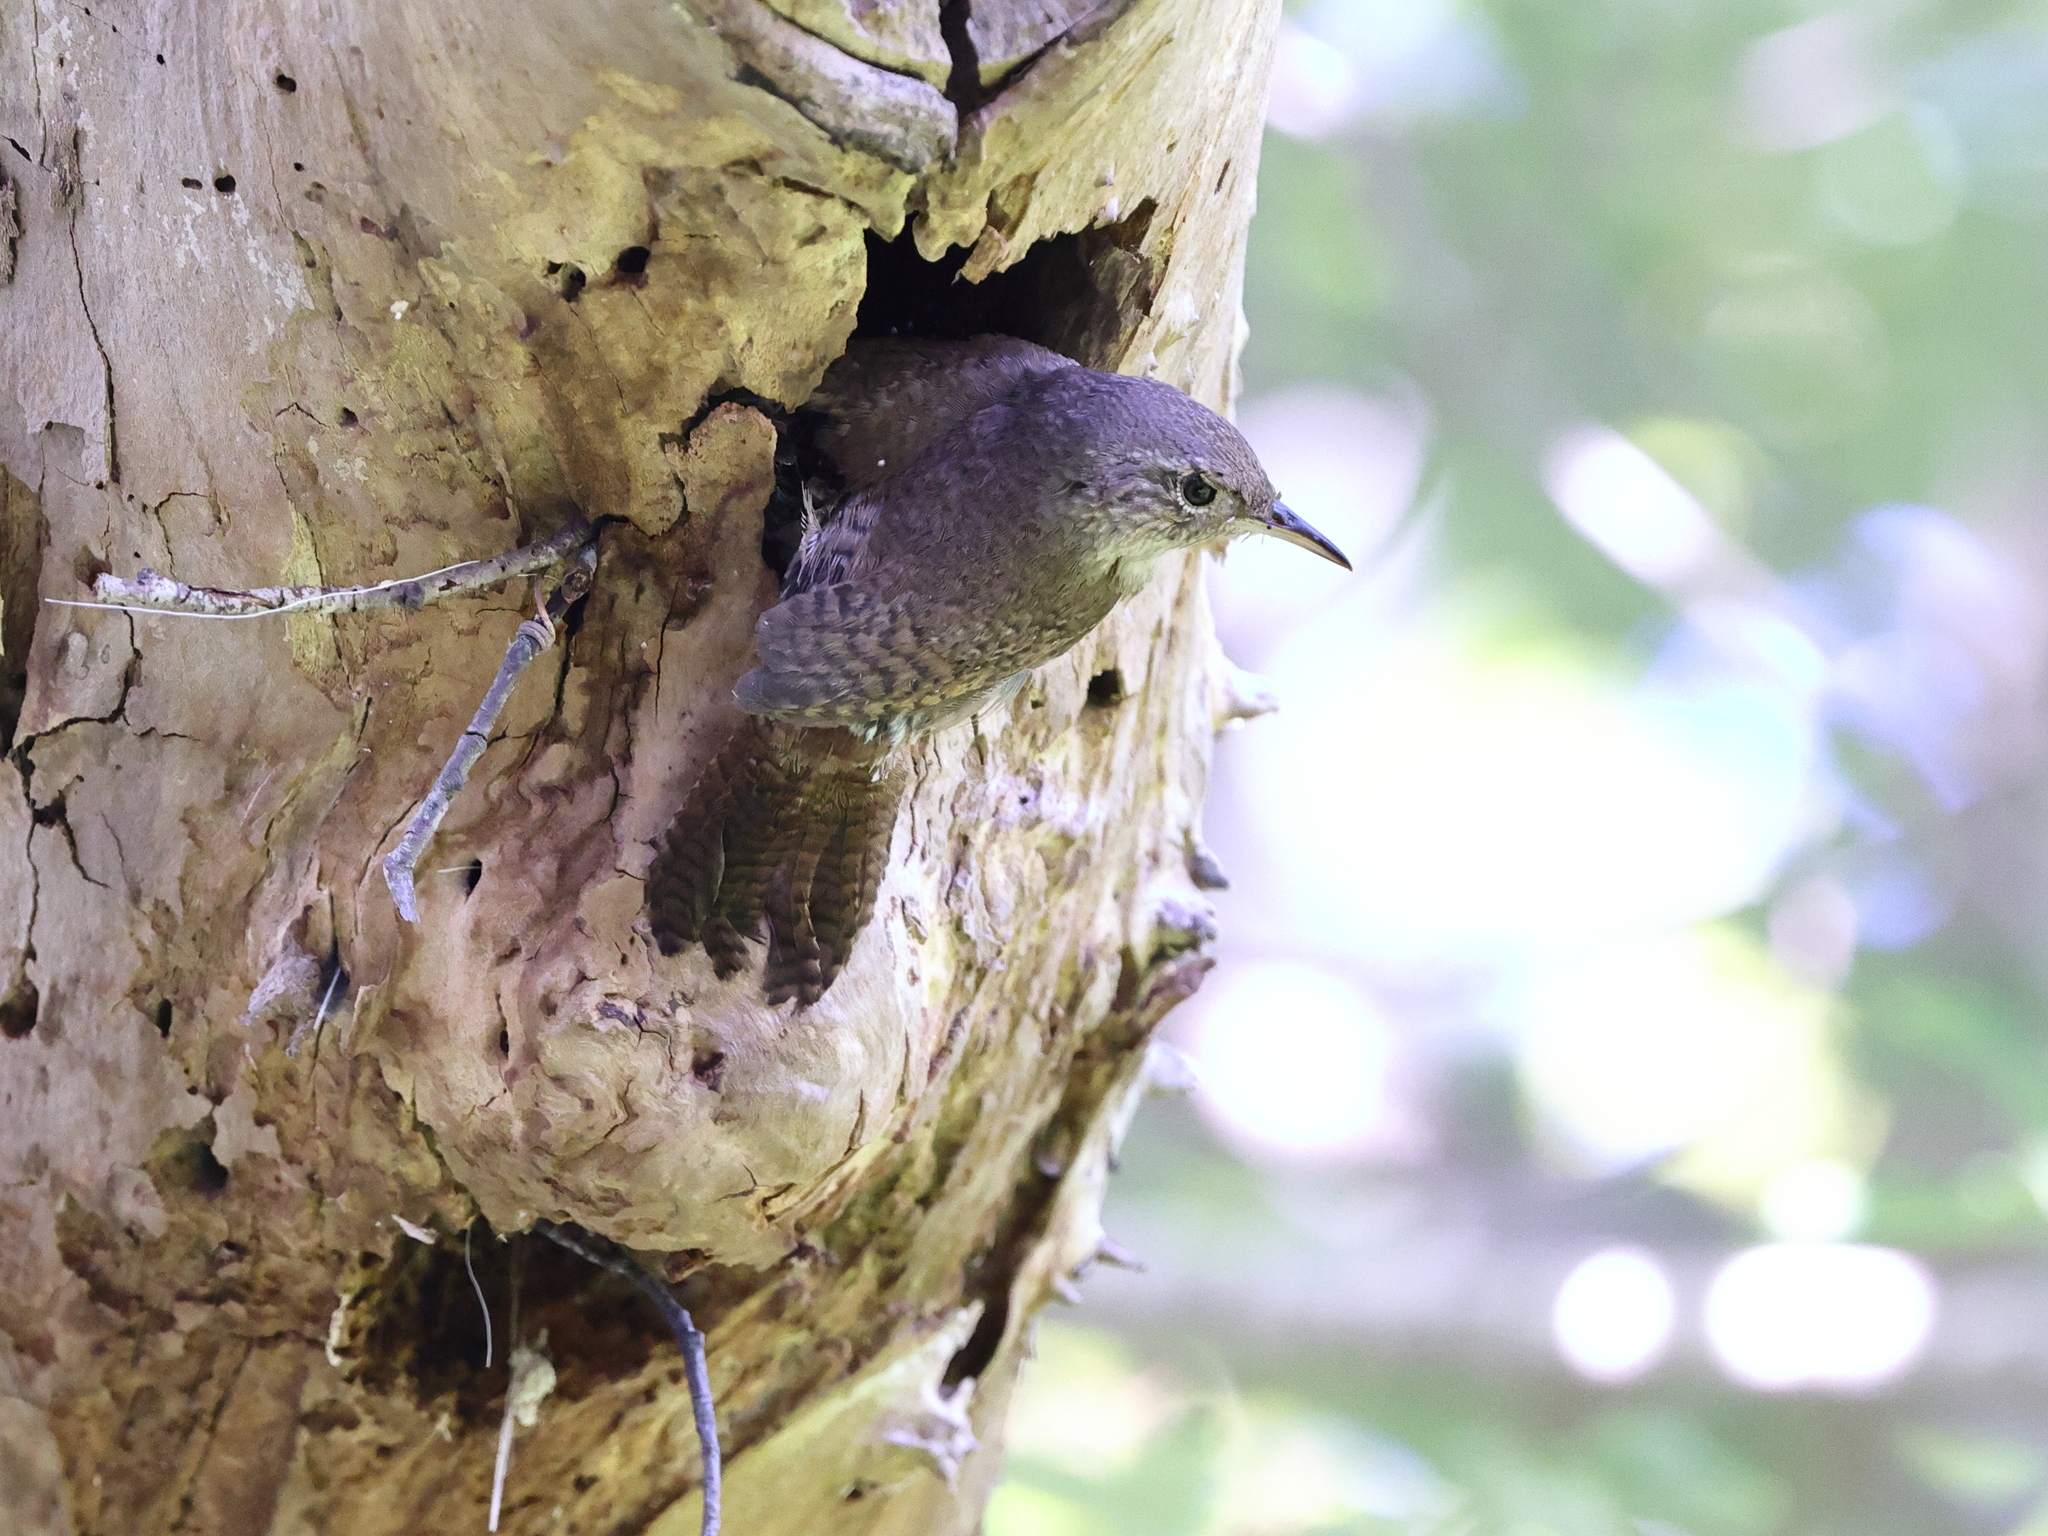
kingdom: Animalia
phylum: Chordata
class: Aves
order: Passeriformes
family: Troglodytidae
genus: Troglodytes
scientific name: Troglodytes aedon
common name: House wren
